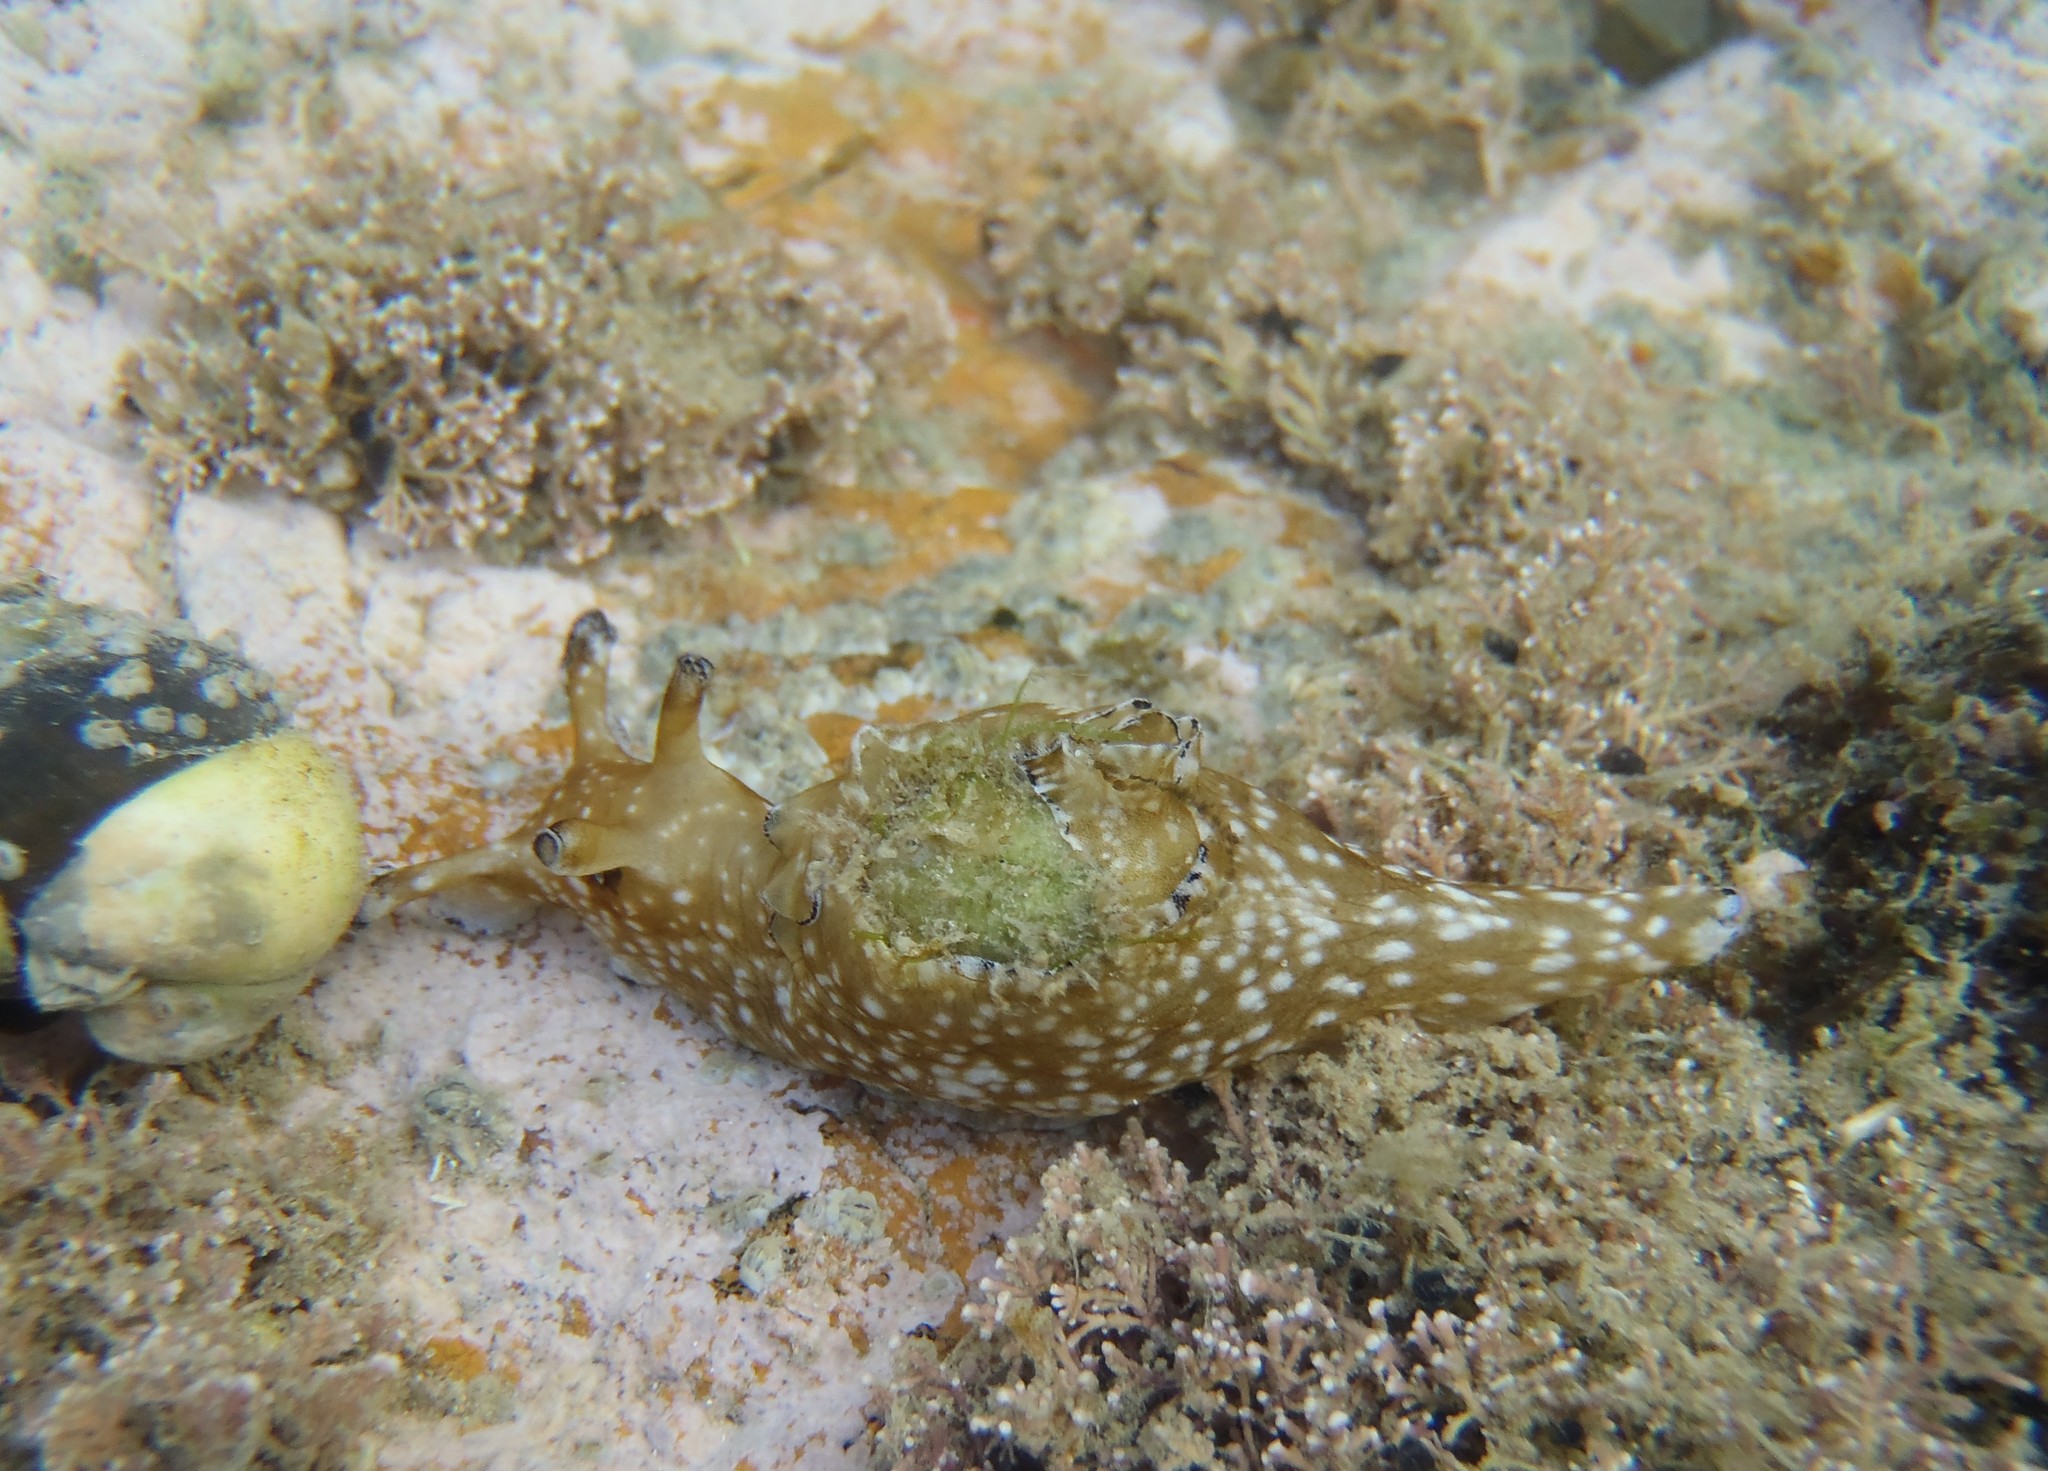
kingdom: Animalia
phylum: Mollusca
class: Gastropoda
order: Aplysiida
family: Aplysiidae
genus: Aplysia
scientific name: Aplysia concava
